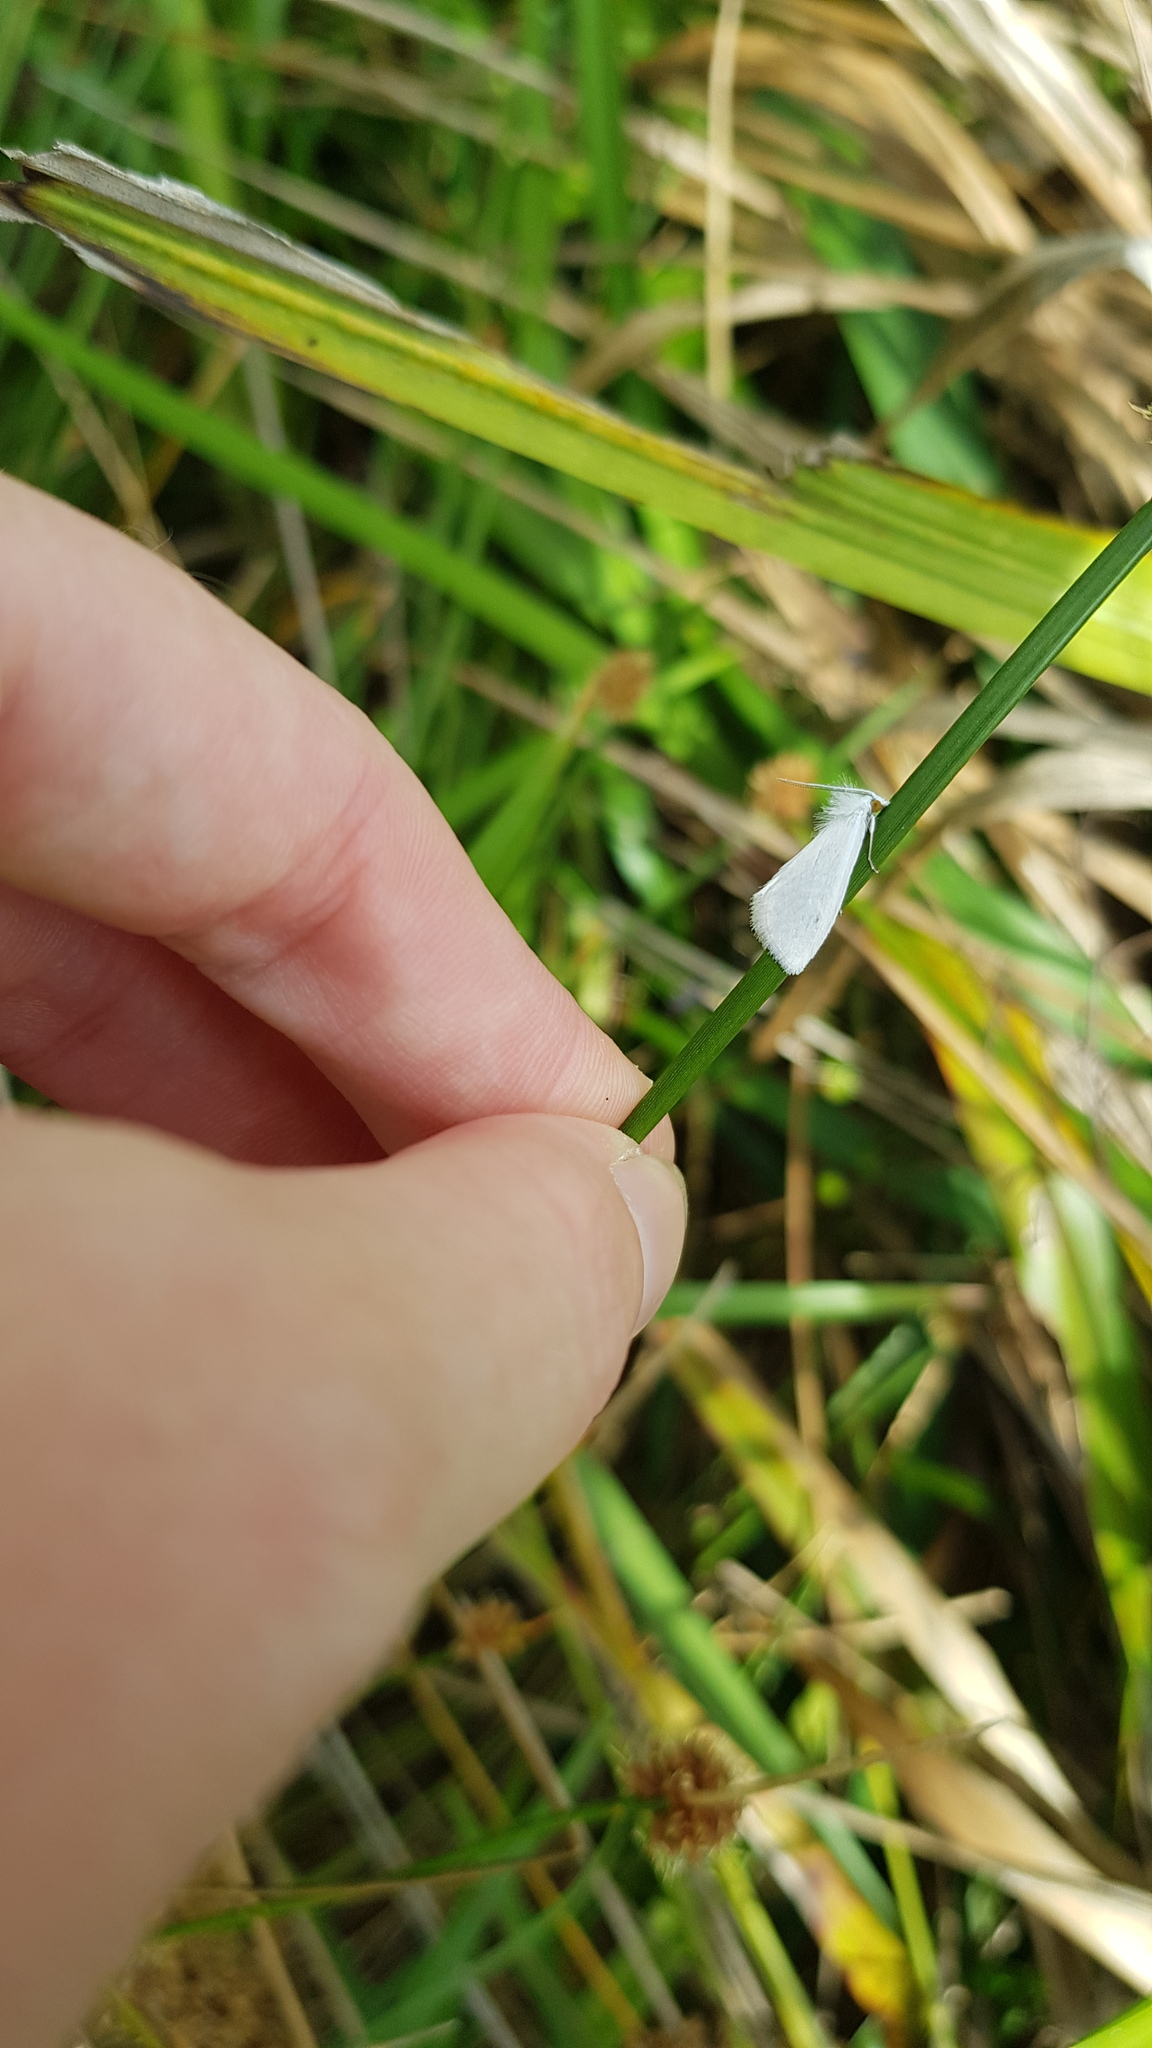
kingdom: Animalia
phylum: Arthropoda
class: Insecta
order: Lepidoptera
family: Crambidae
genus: Tipanaea
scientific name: Tipanaea patulella
